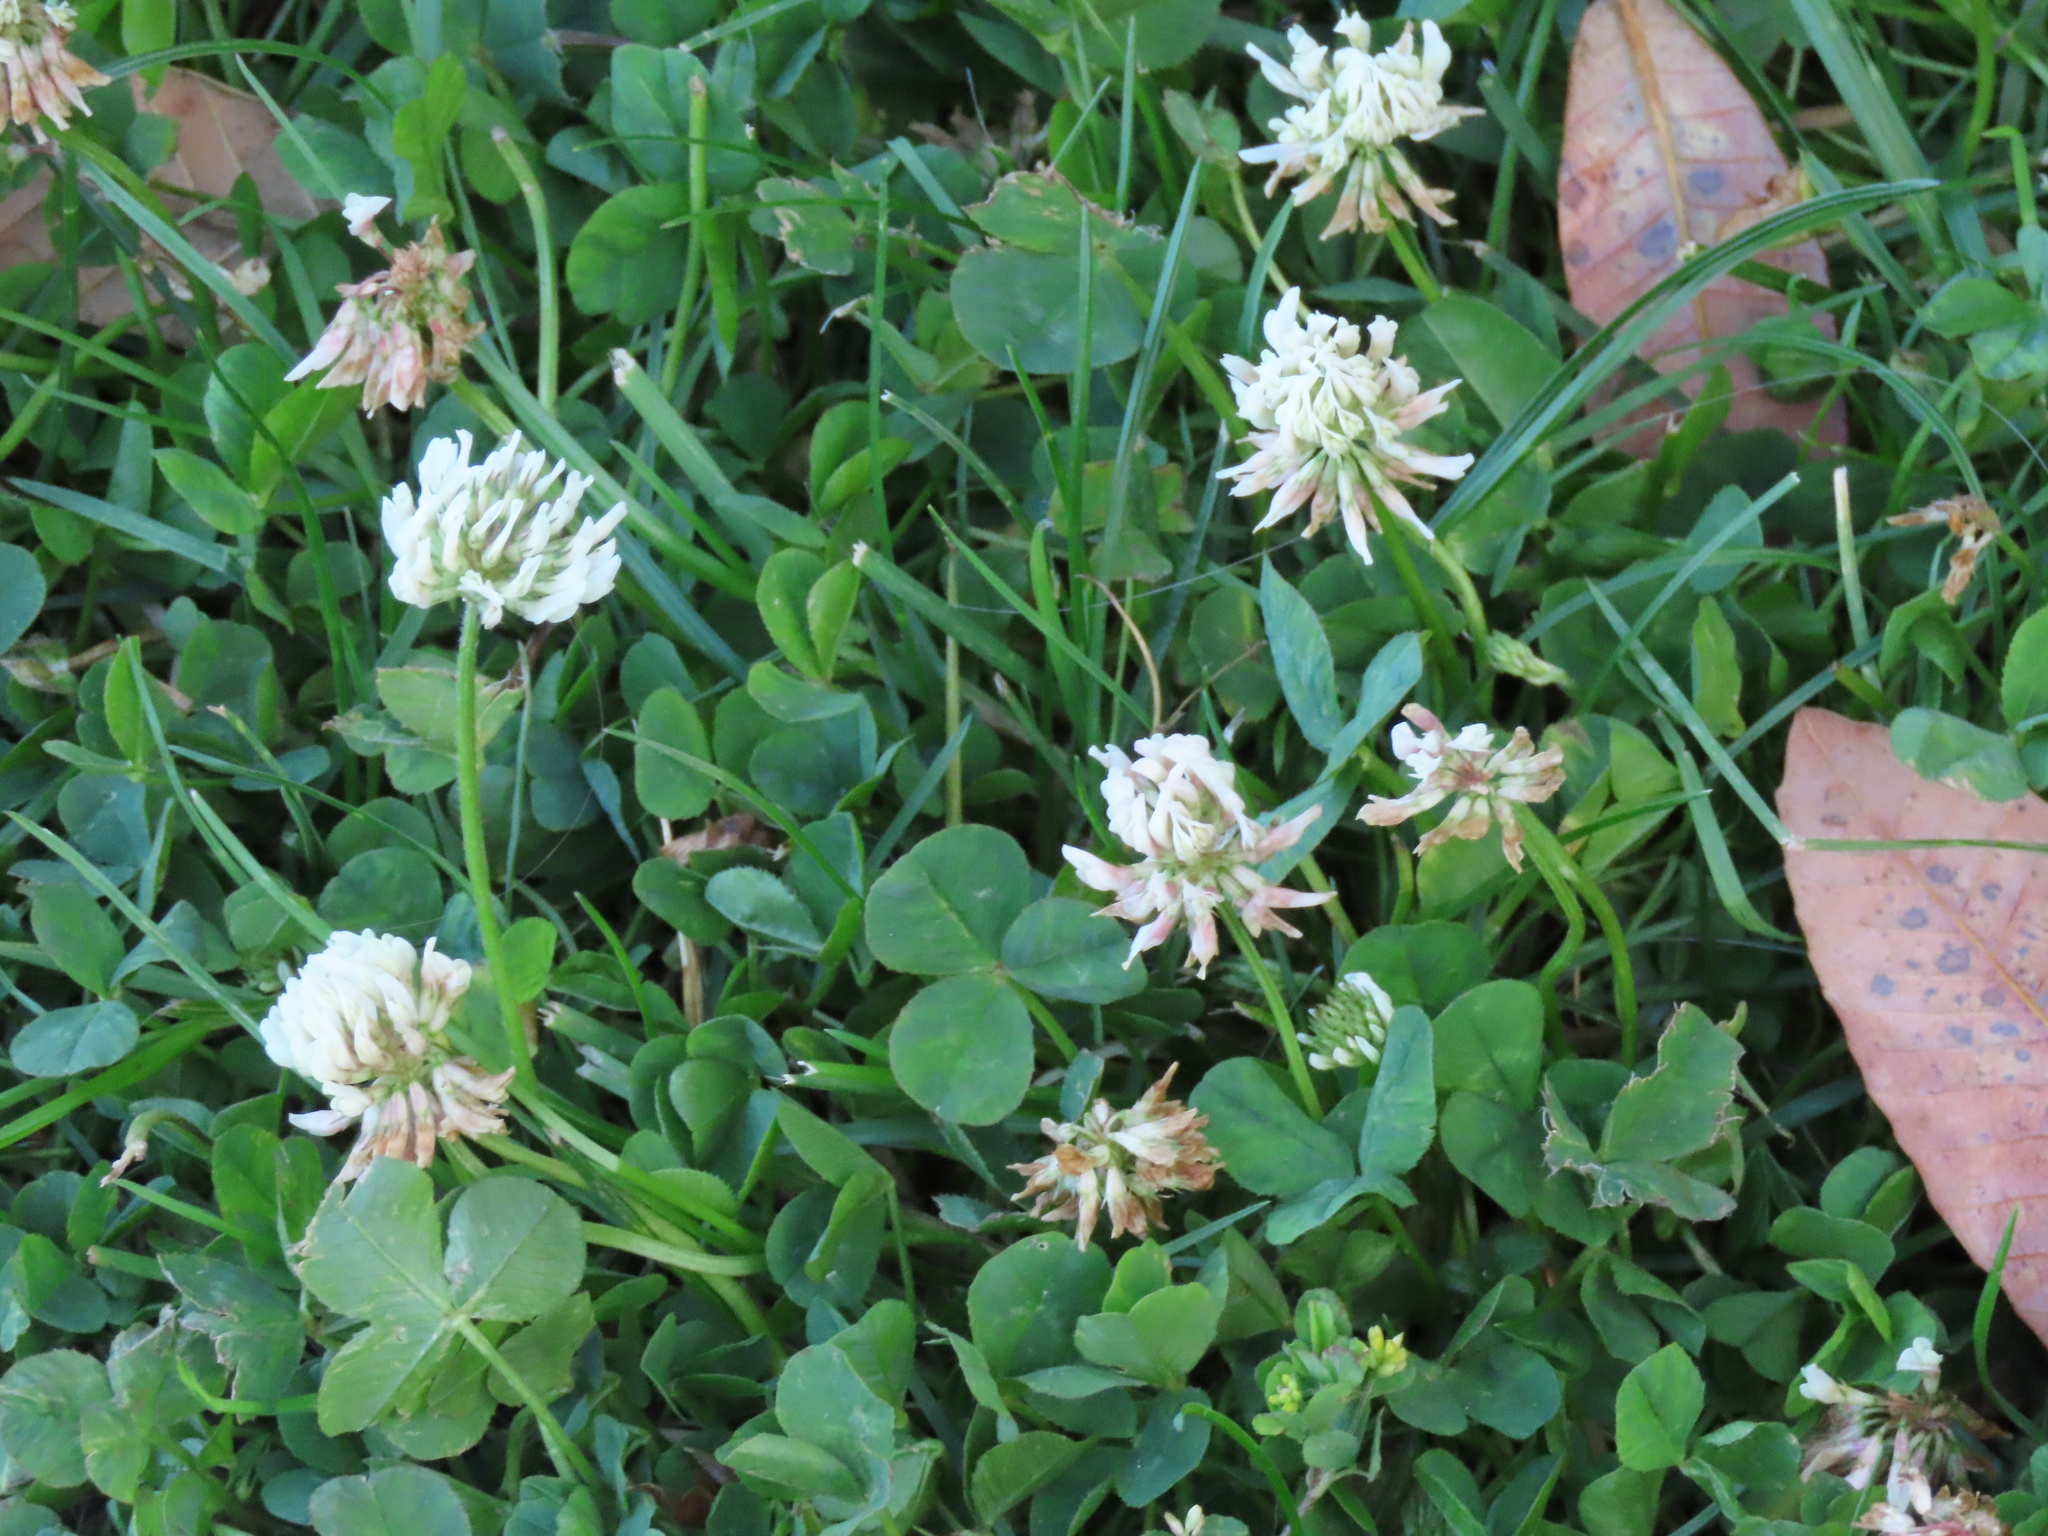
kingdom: Plantae
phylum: Tracheophyta
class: Magnoliopsida
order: Fabales
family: Fabaceae
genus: Trifolium
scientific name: Trifolium repens
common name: White clover
